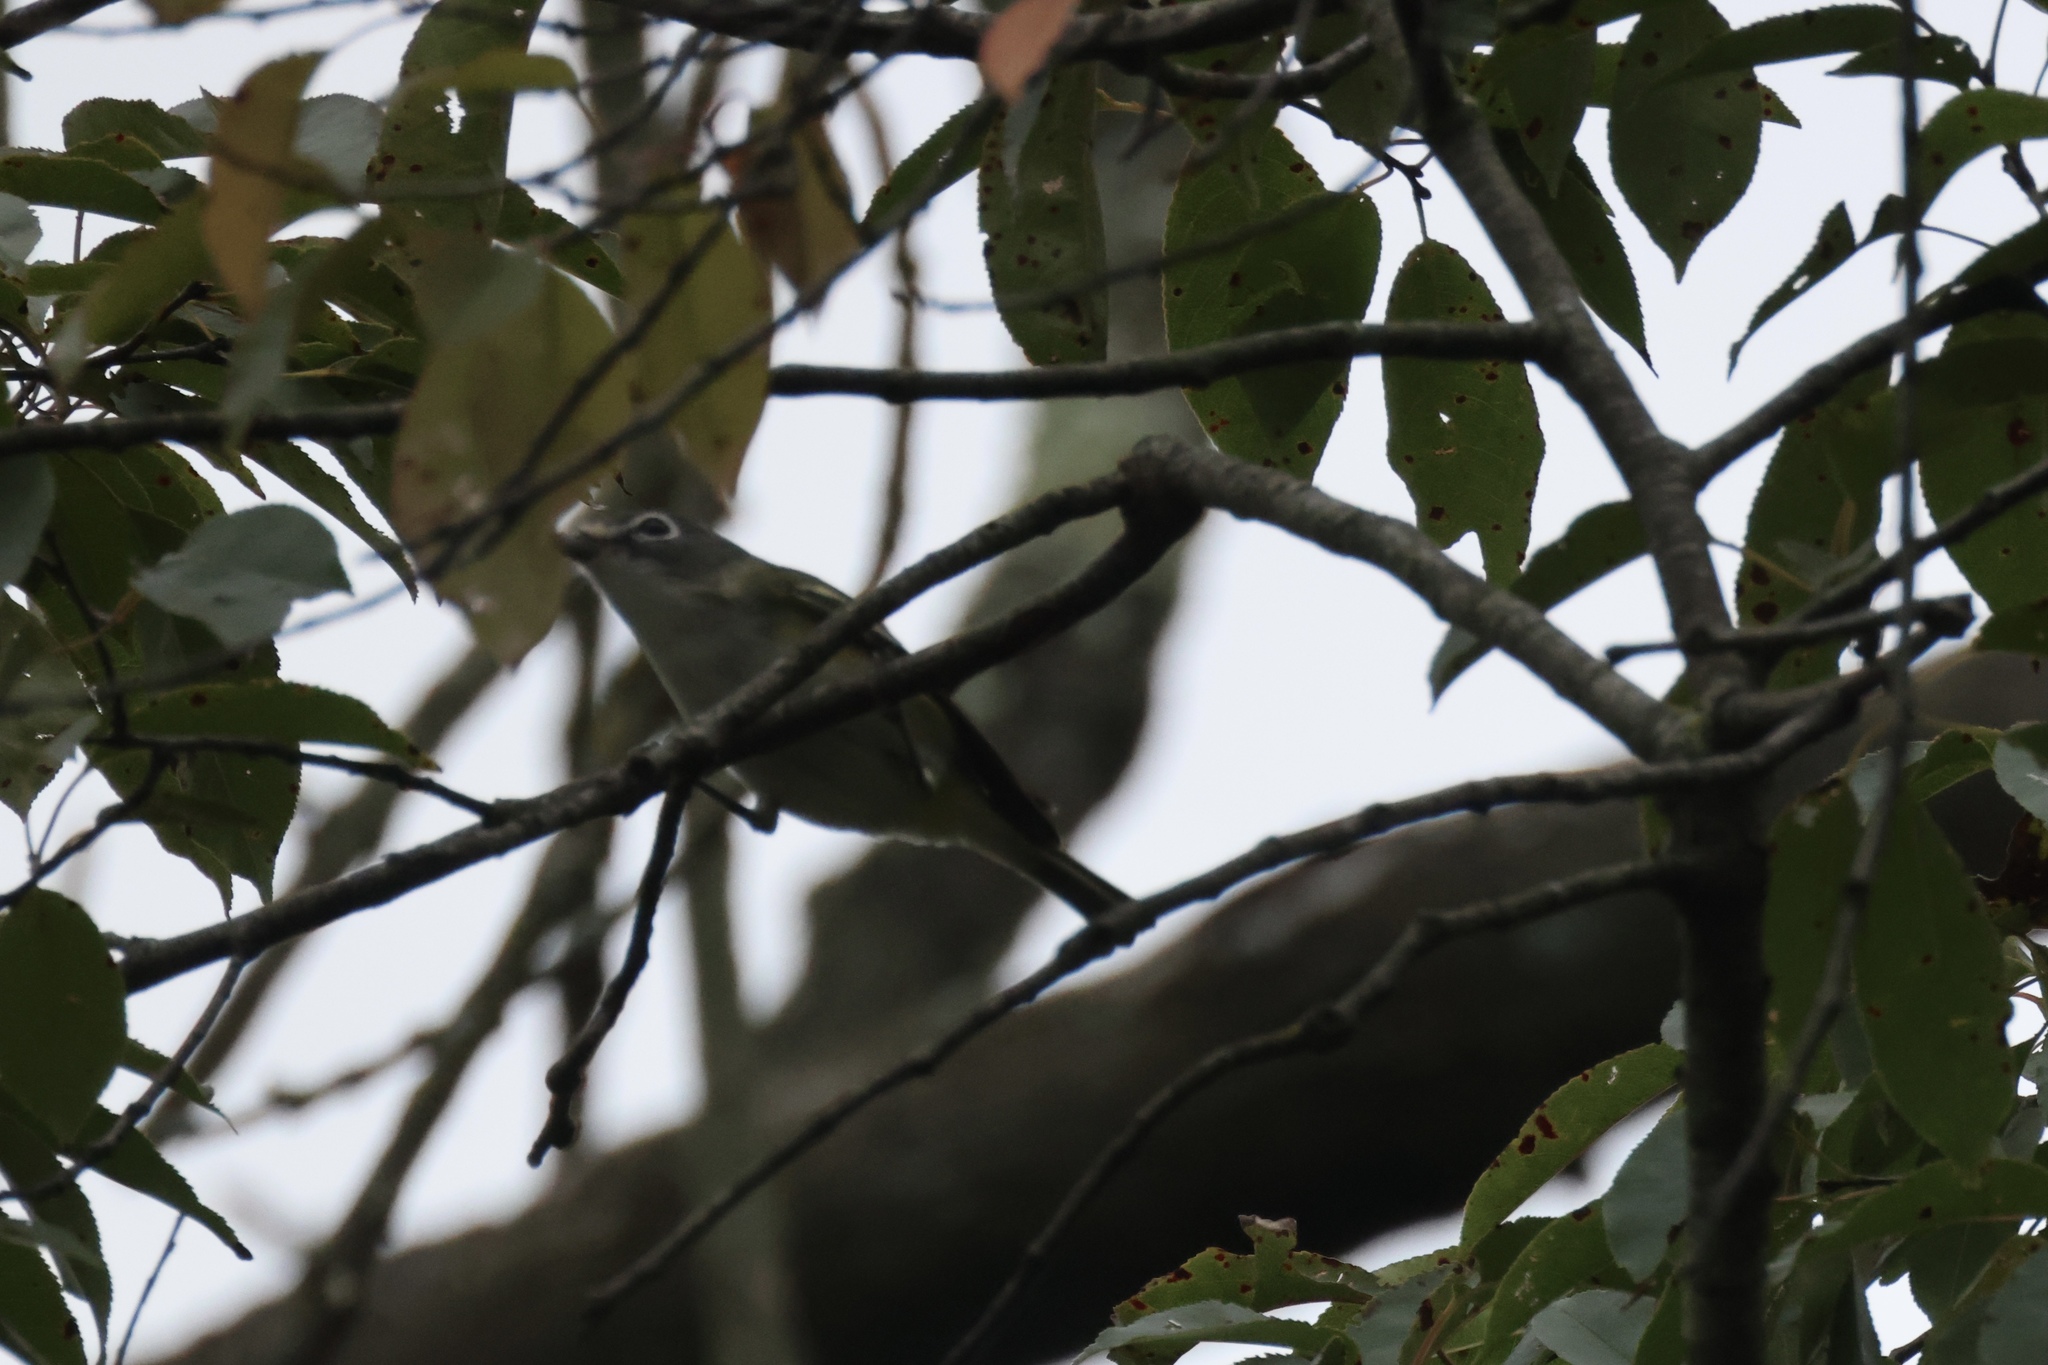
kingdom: Animalia
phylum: Chordata
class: Aves
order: Passeriformes
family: Vireonidae
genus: Vireo
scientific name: Vireo solitarius
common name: Blue-headed vireo
